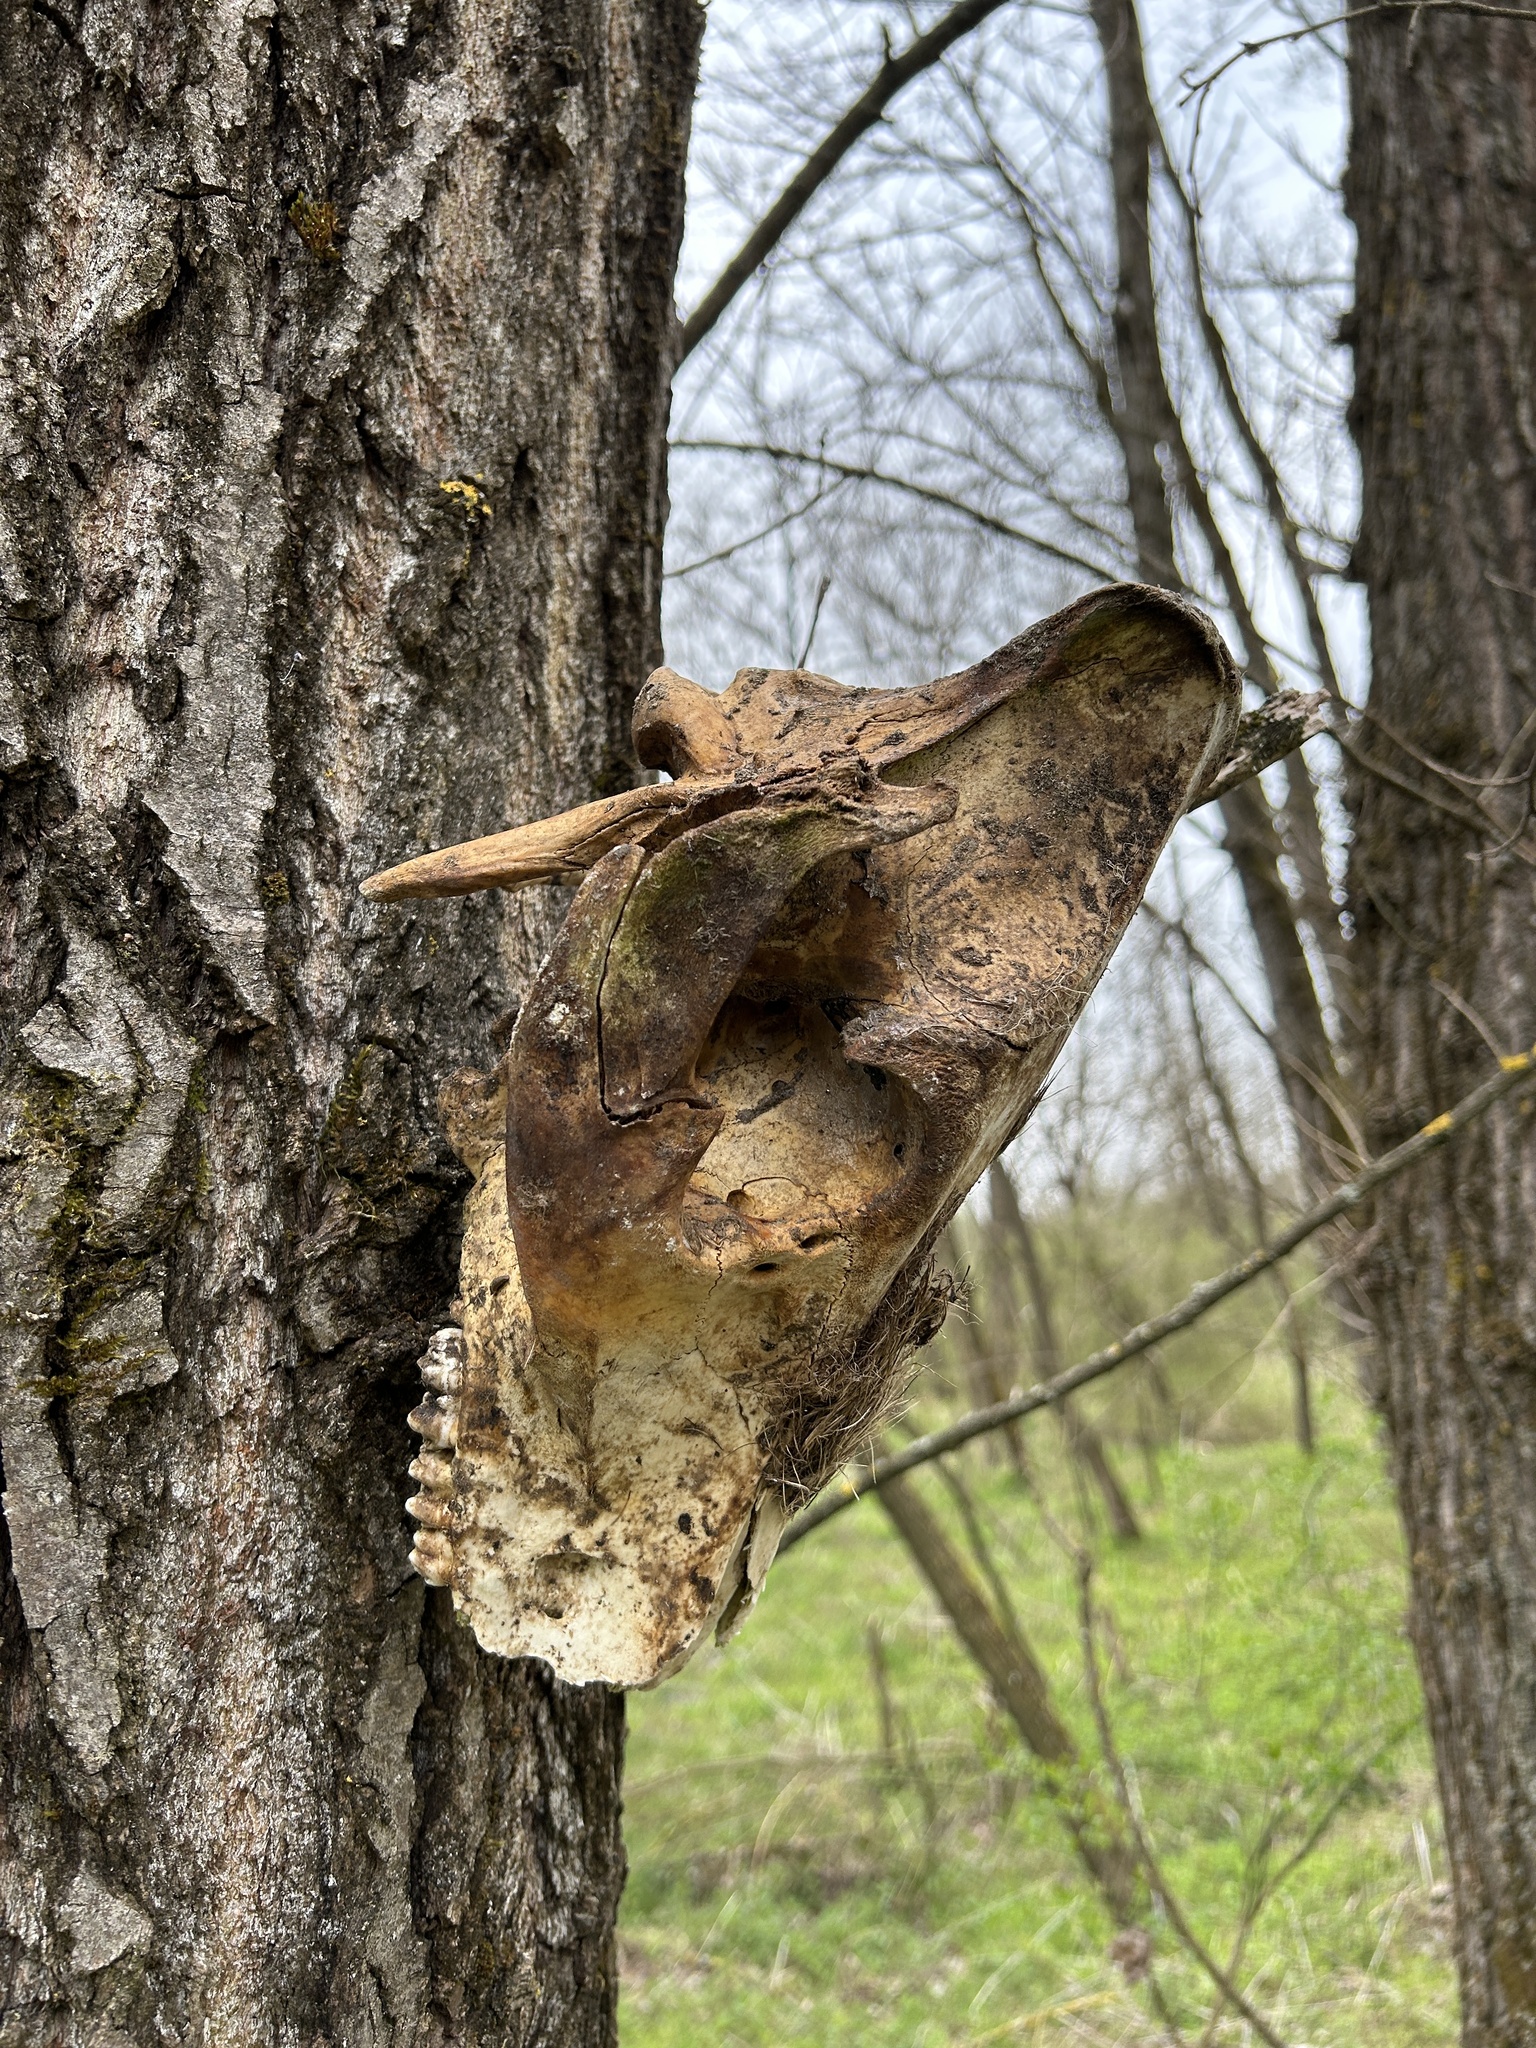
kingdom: Animalia
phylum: Chordata
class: Mammalia
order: Artiodactyla
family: Suidae
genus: Sus
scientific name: Sus scrofa
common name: Wild boar
